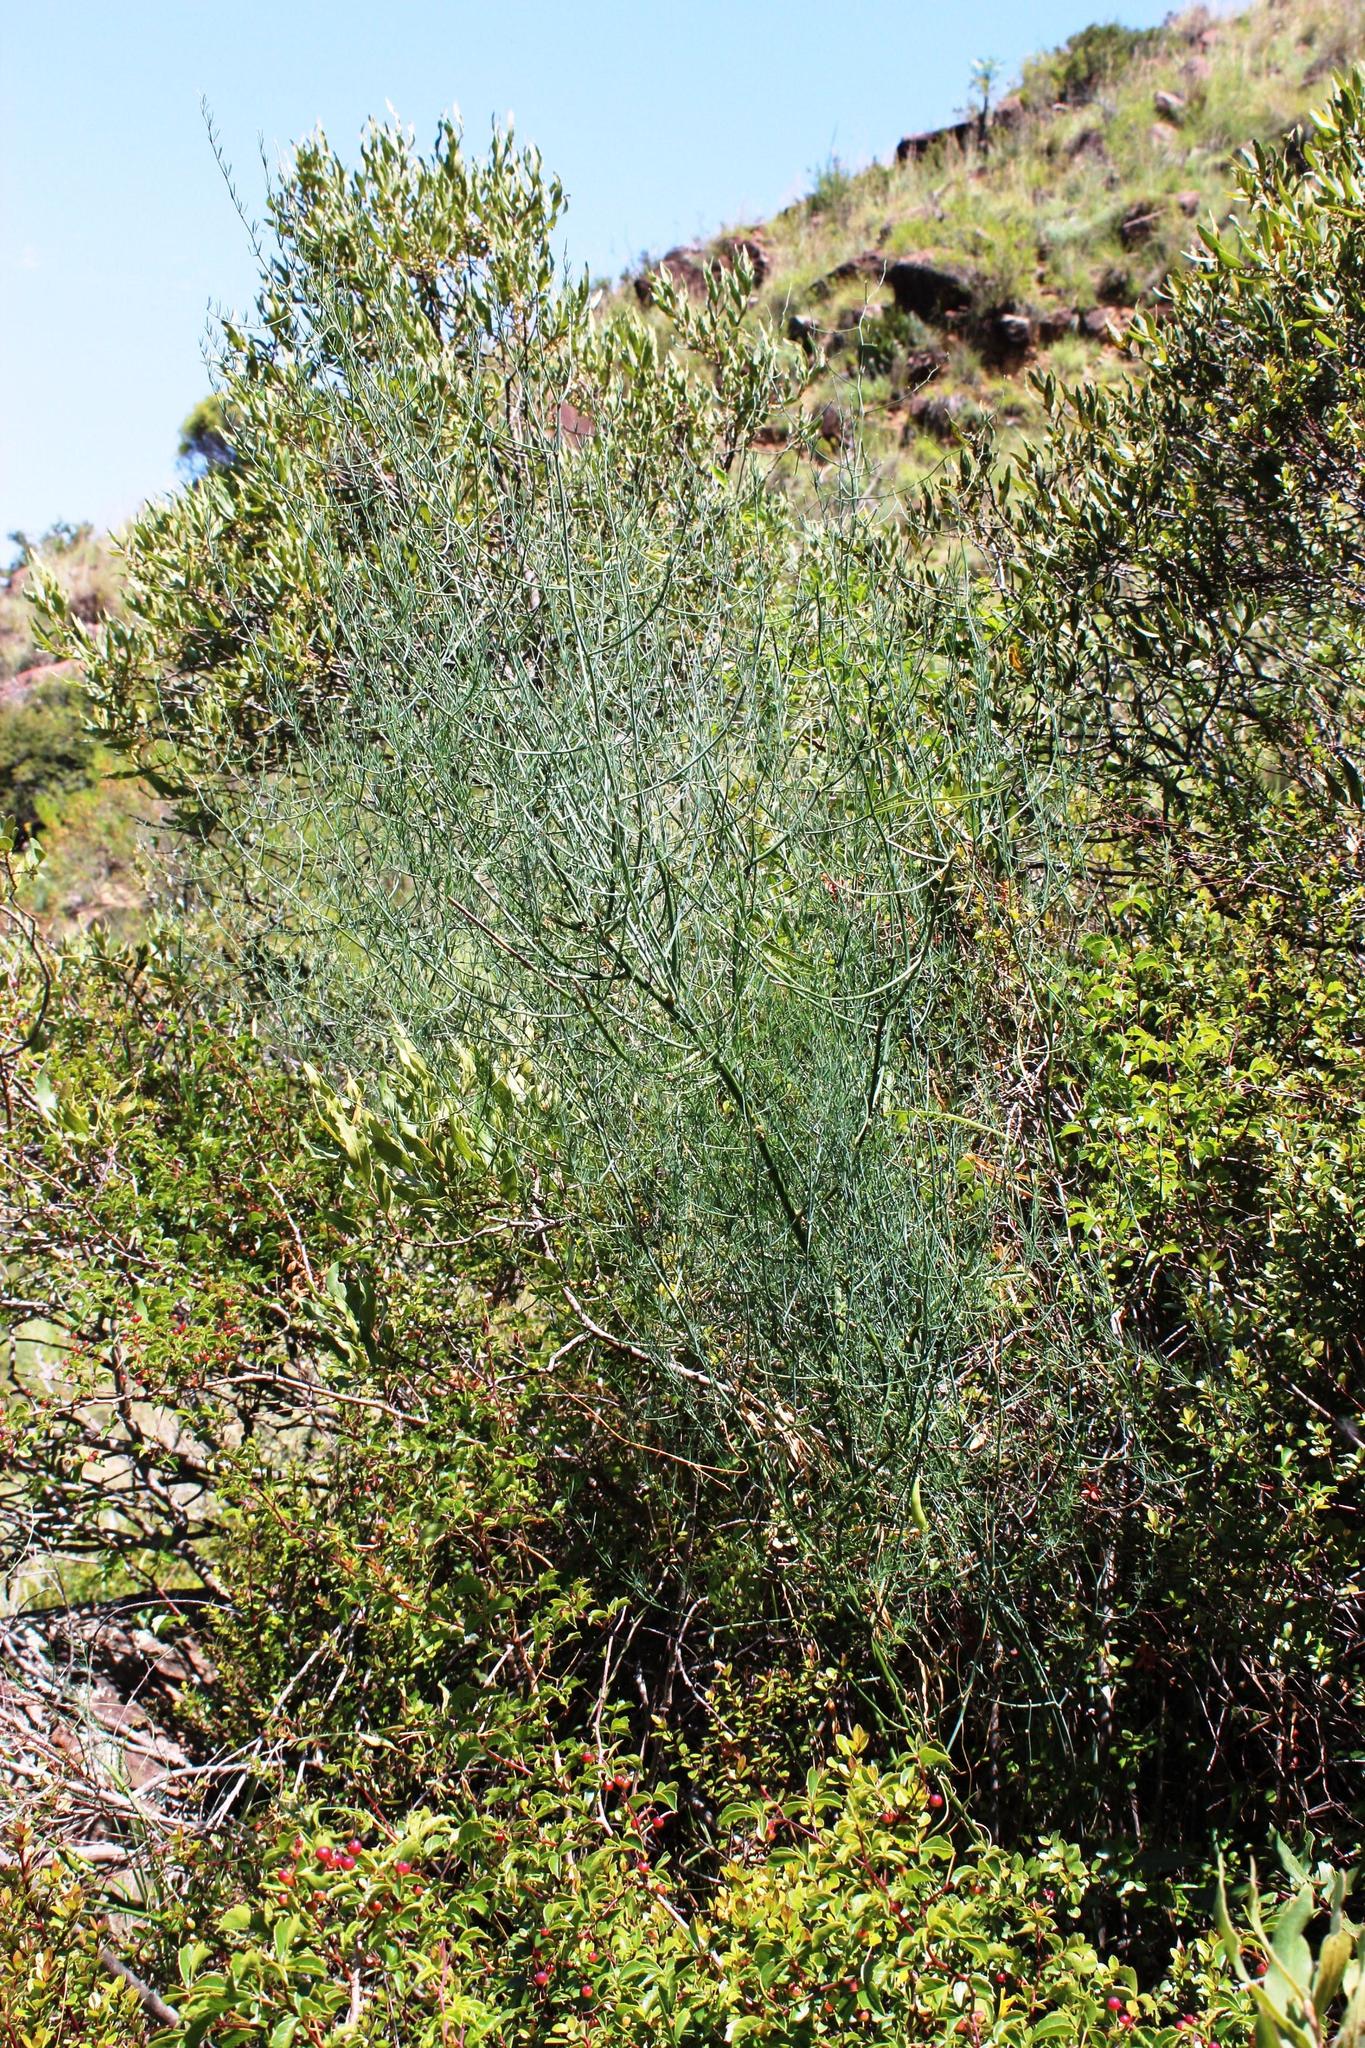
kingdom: Plantae
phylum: Tracheophyta
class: Liliopsida
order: Asparagales
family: Asparagaceae
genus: Asparagus
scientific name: Asparagus denudatus
